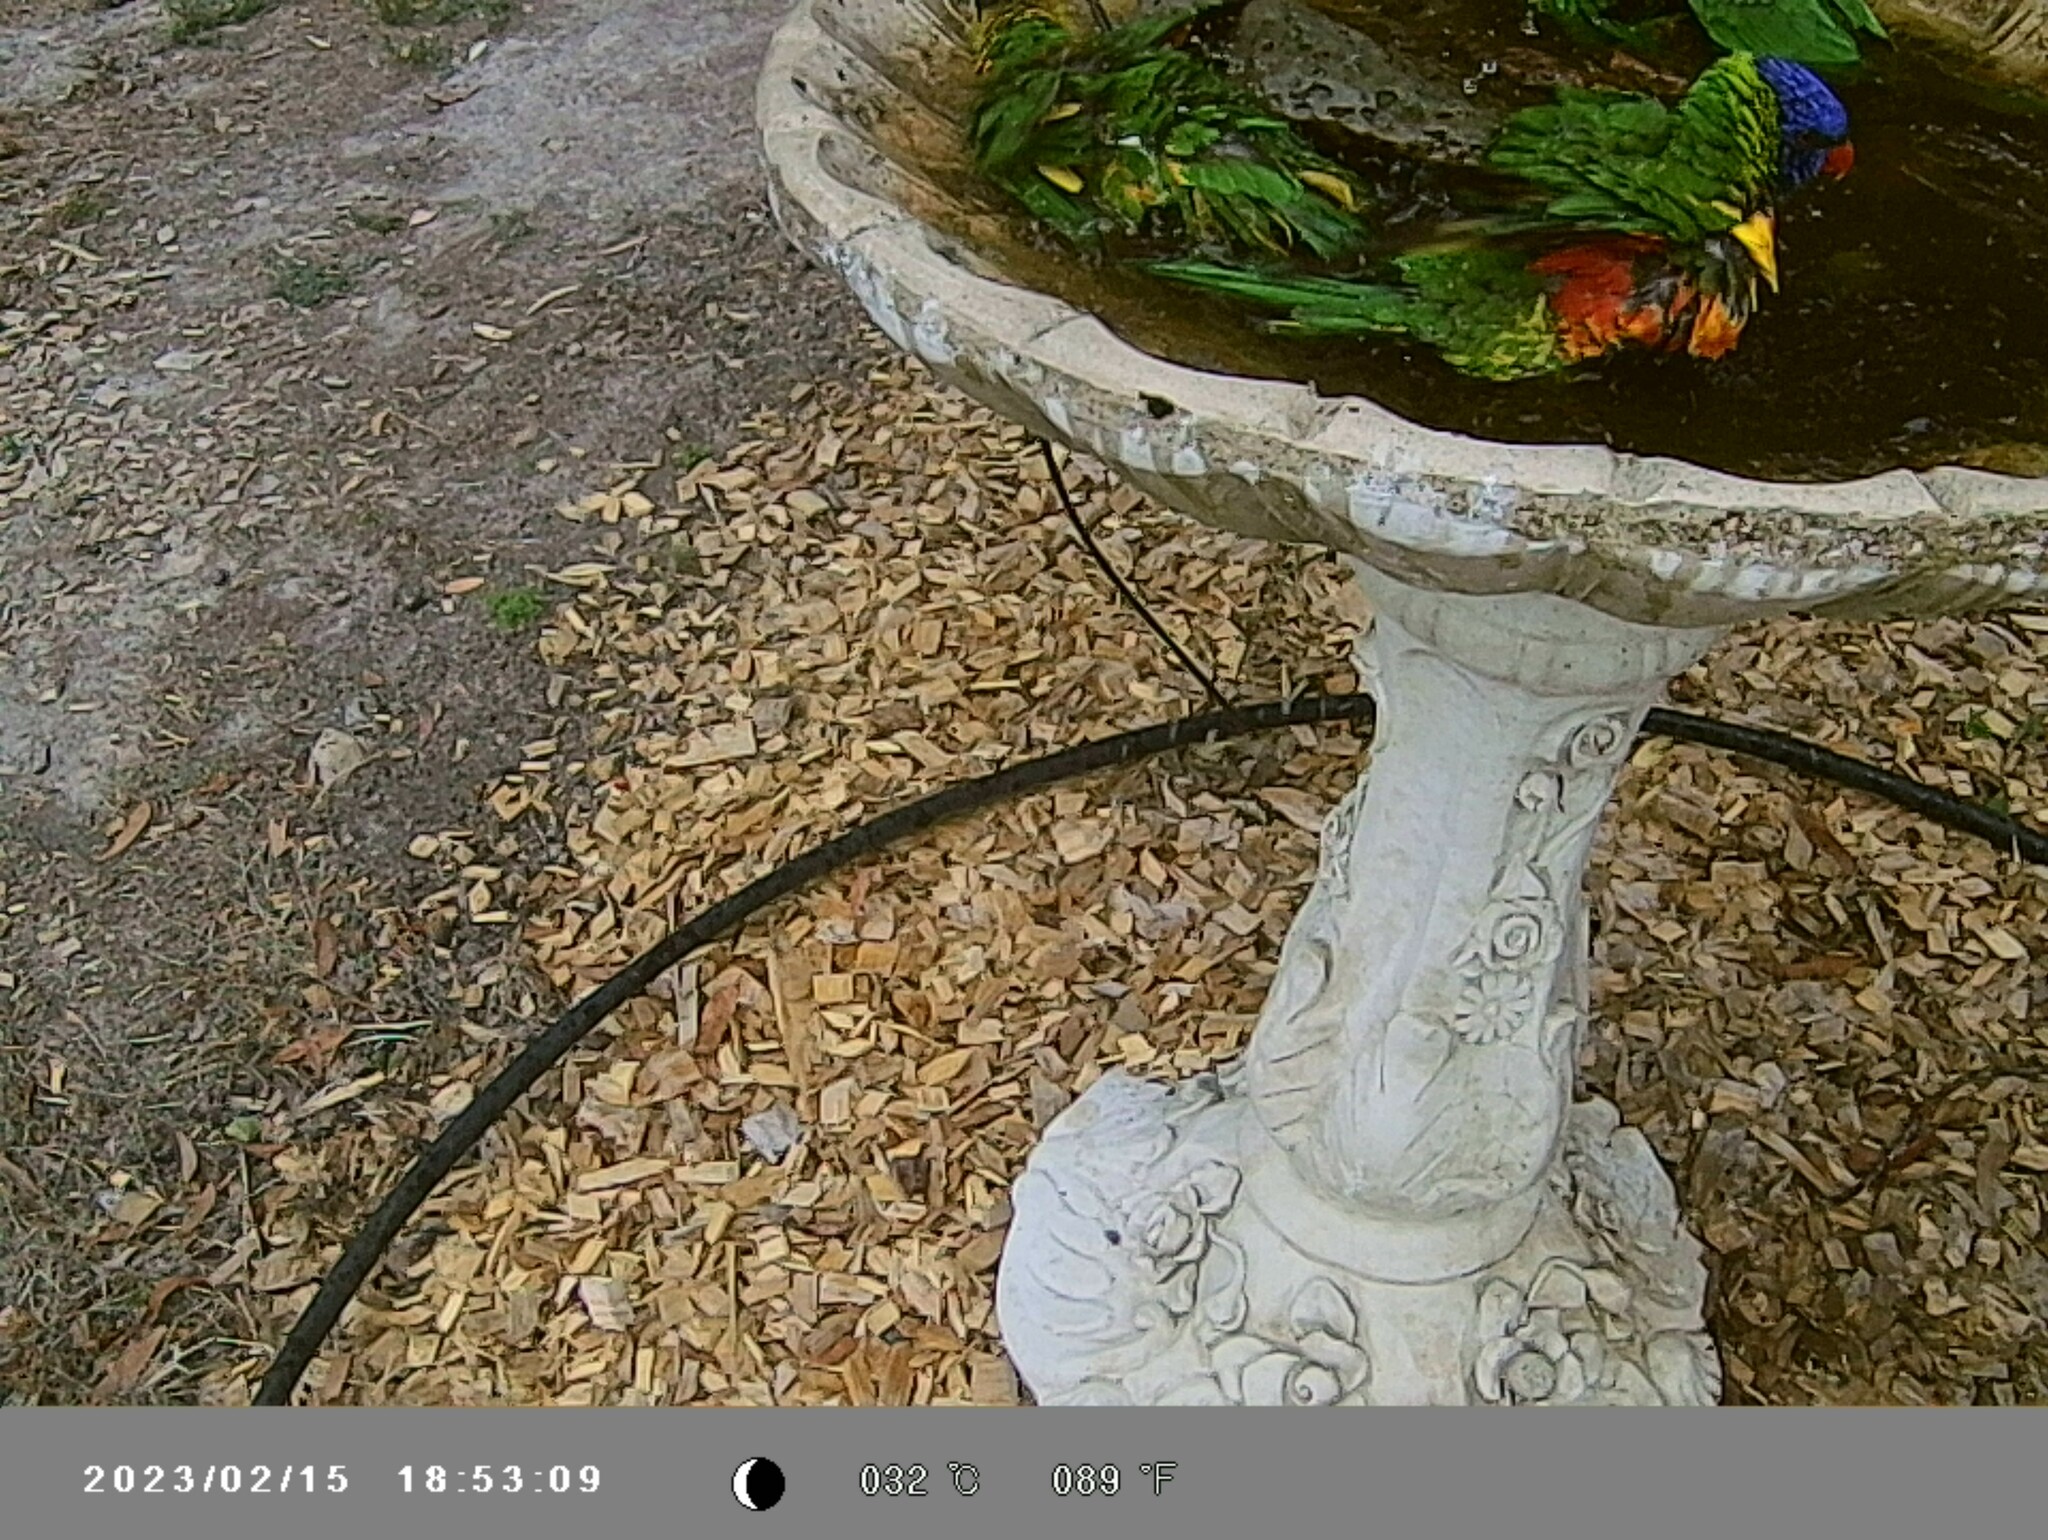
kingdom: Animalia
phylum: Chordata
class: Aves
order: Psittaciformes
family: Psittacidae
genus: Trichoglossus
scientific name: Trichoglossus haematodus
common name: Coconut lorikeet
